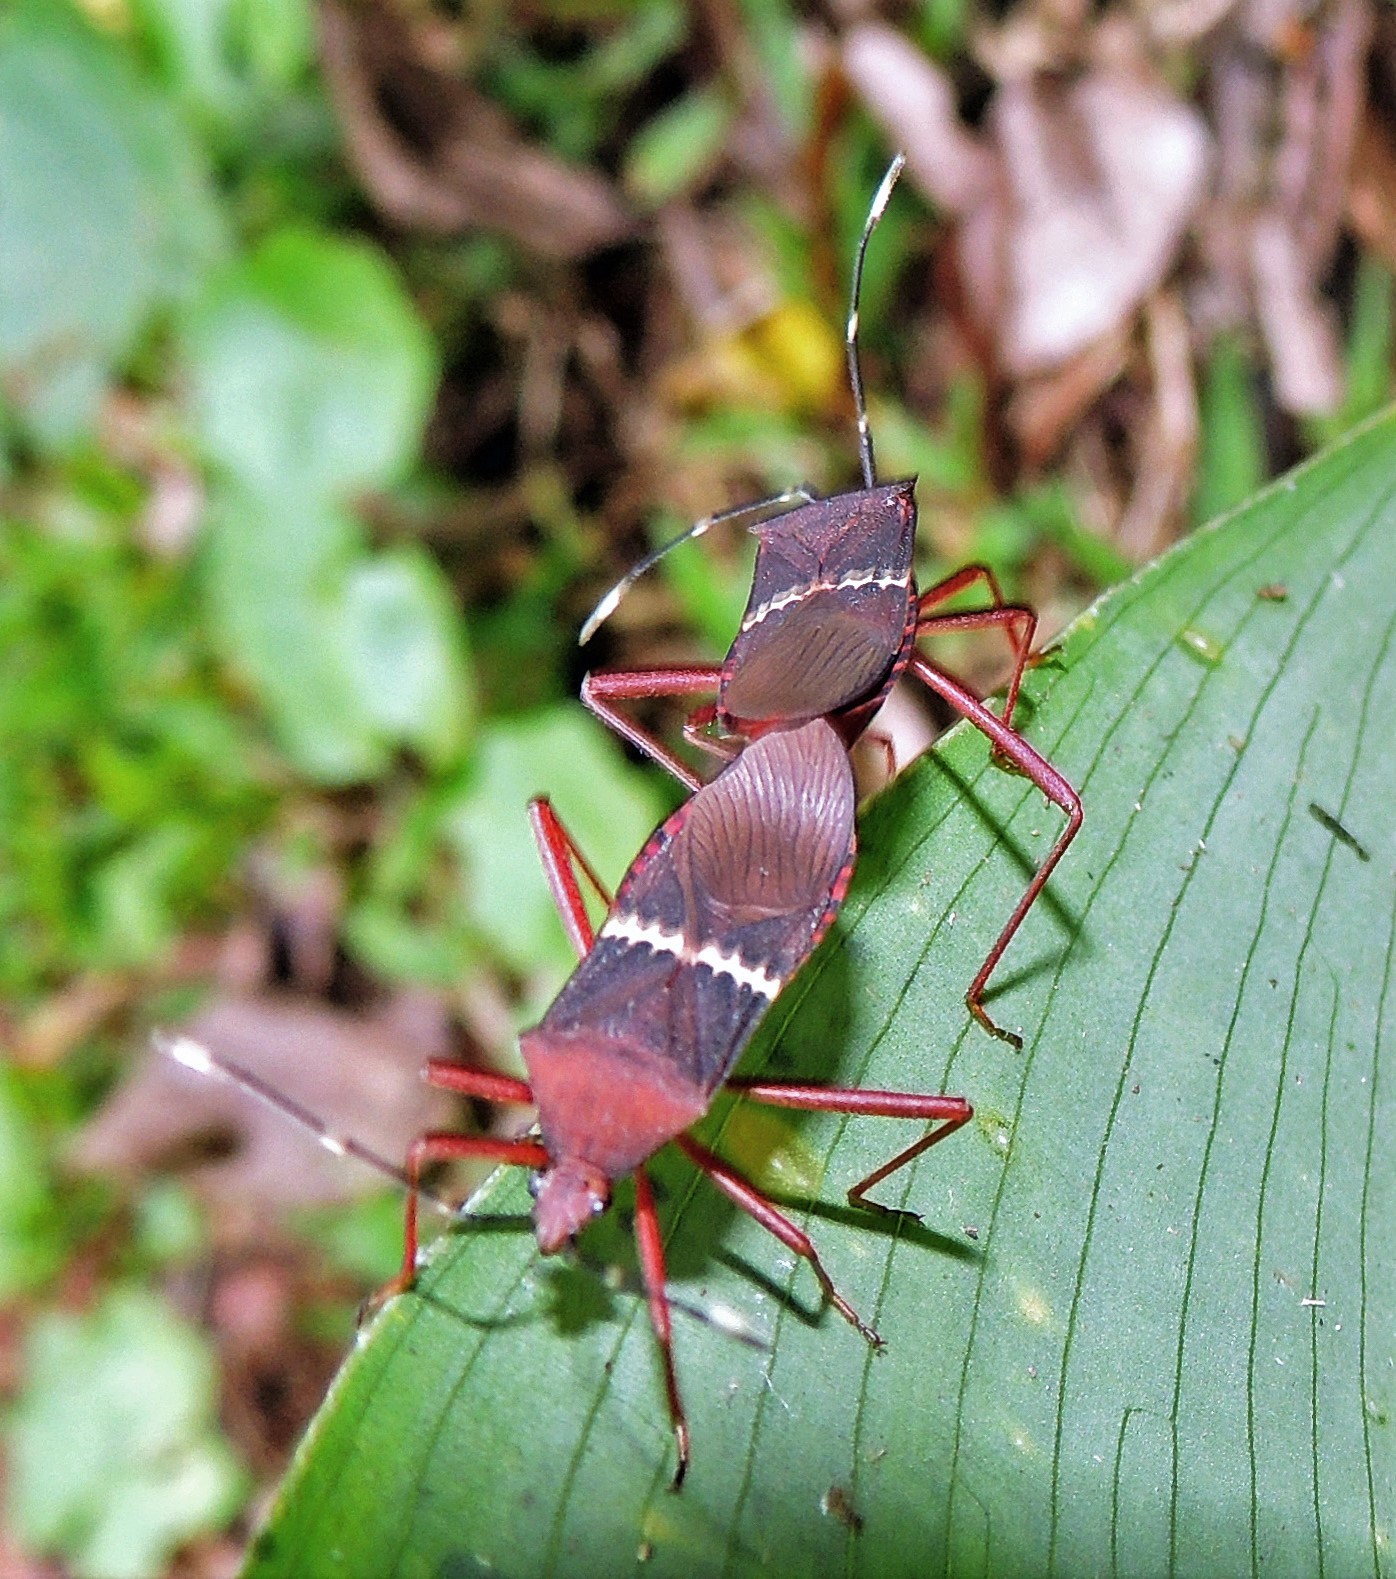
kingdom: Animalia
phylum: Arthropoda
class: Insecta
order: Hemiptera
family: Coreidae
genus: Leptoscelis
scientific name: Leptoscelis fasciifera
